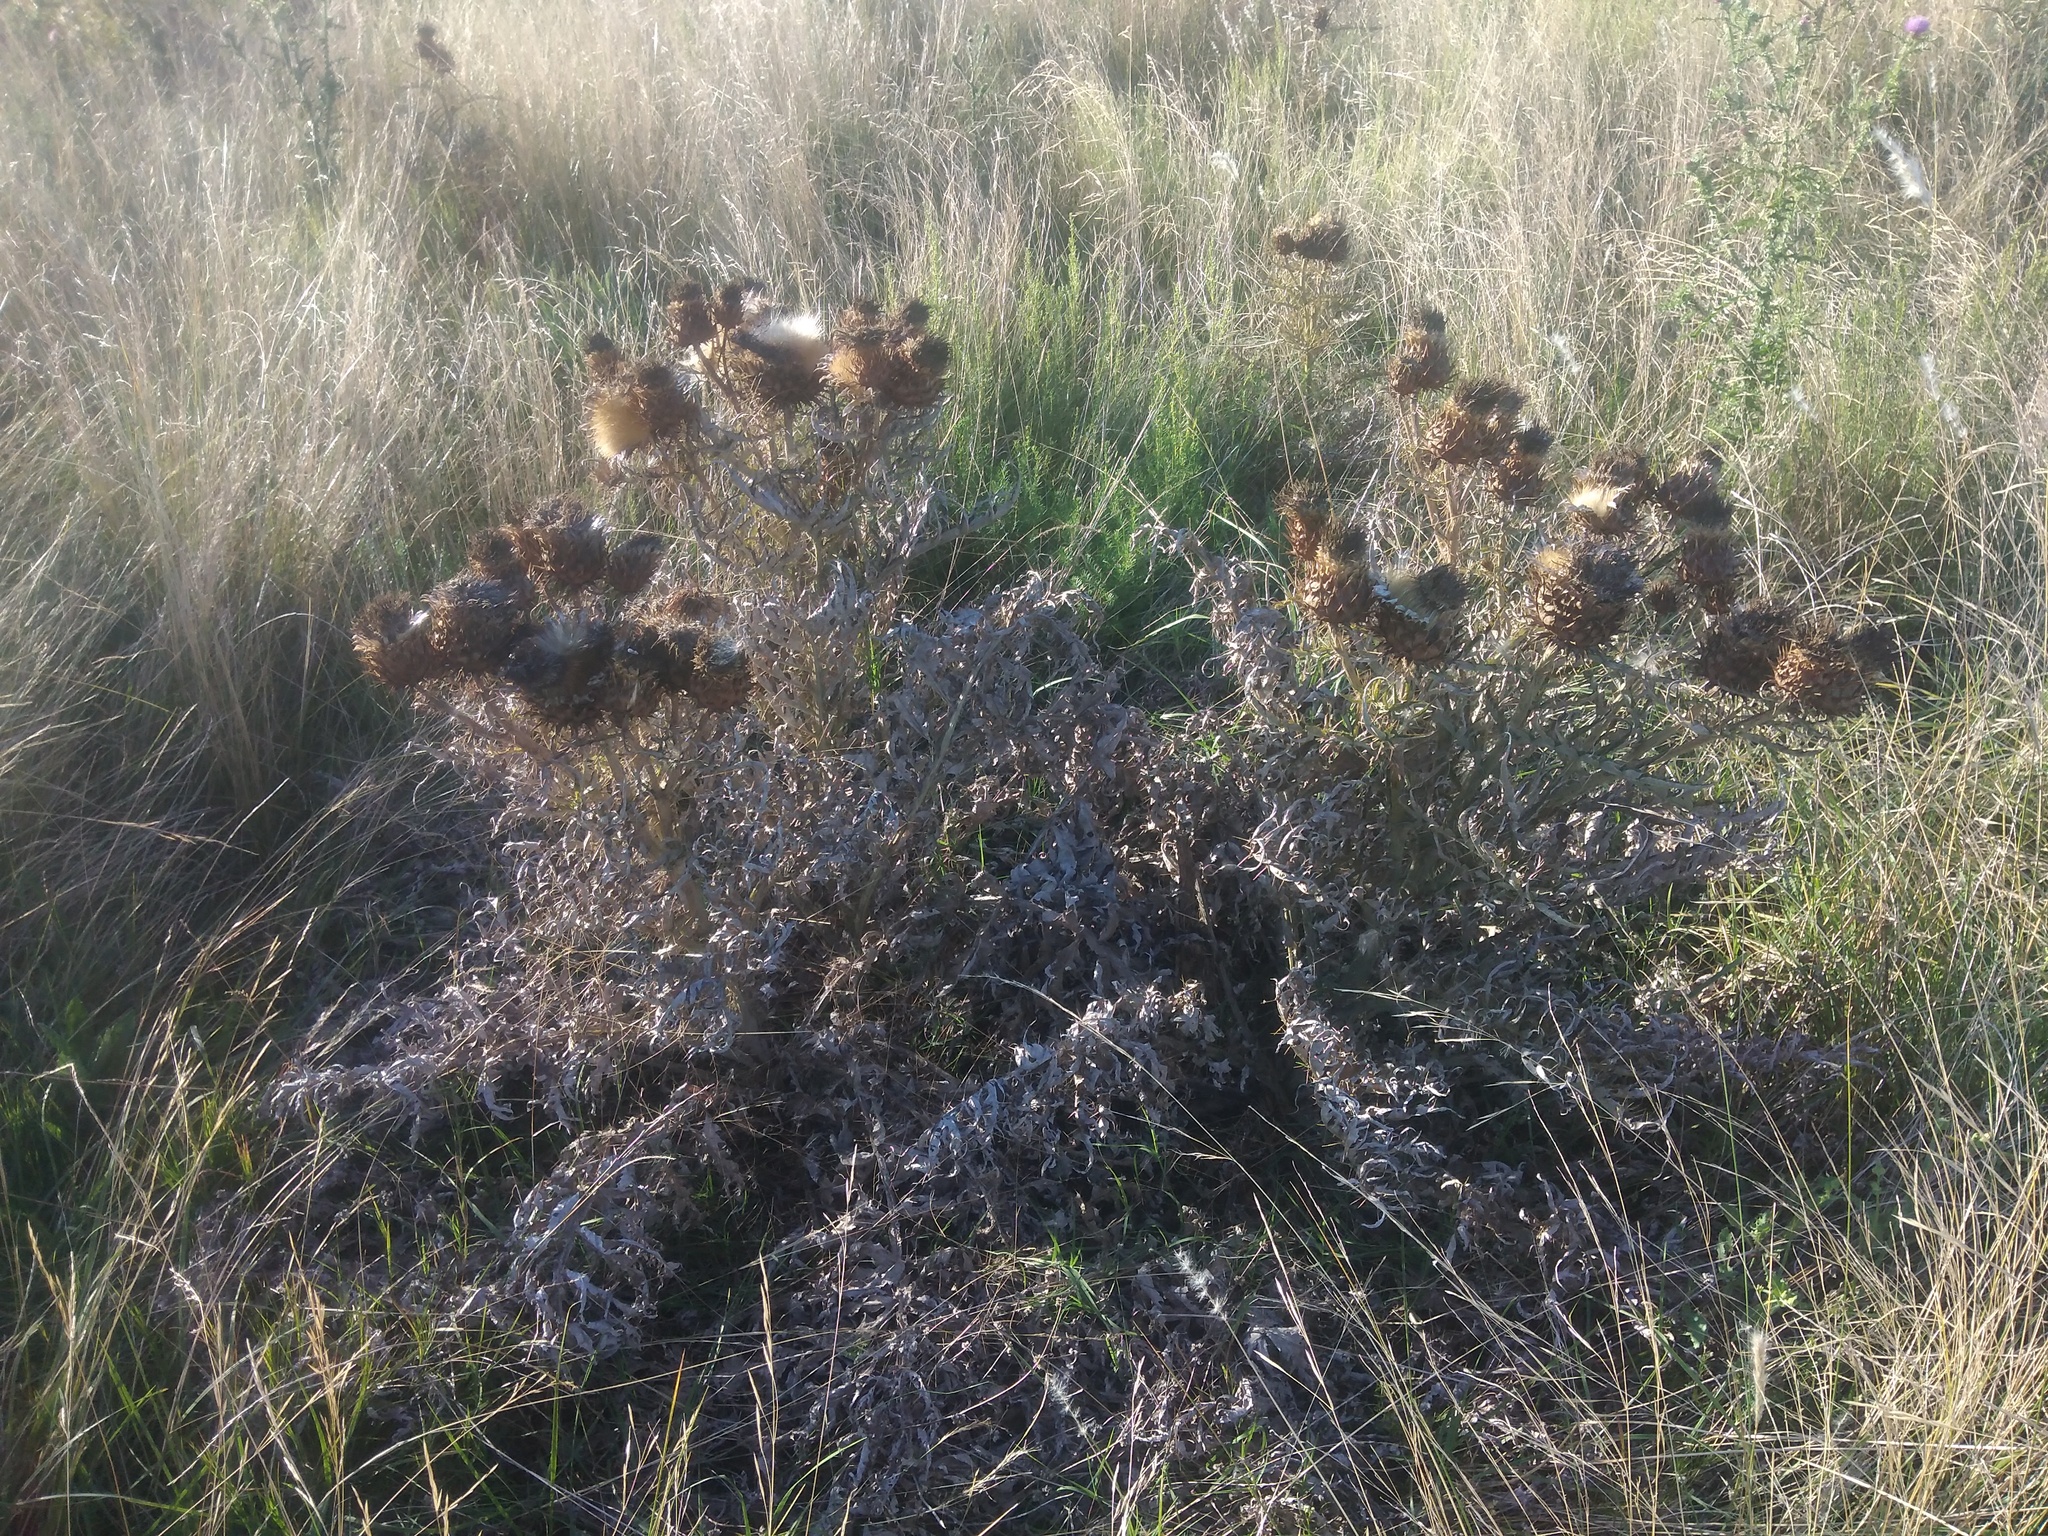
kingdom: Plantae
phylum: Tracheophyta
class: Magnoliopsida
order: Asterales
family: Asteraceae
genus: Cynara
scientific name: Cynara cardunculus
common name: Globe artichoke
